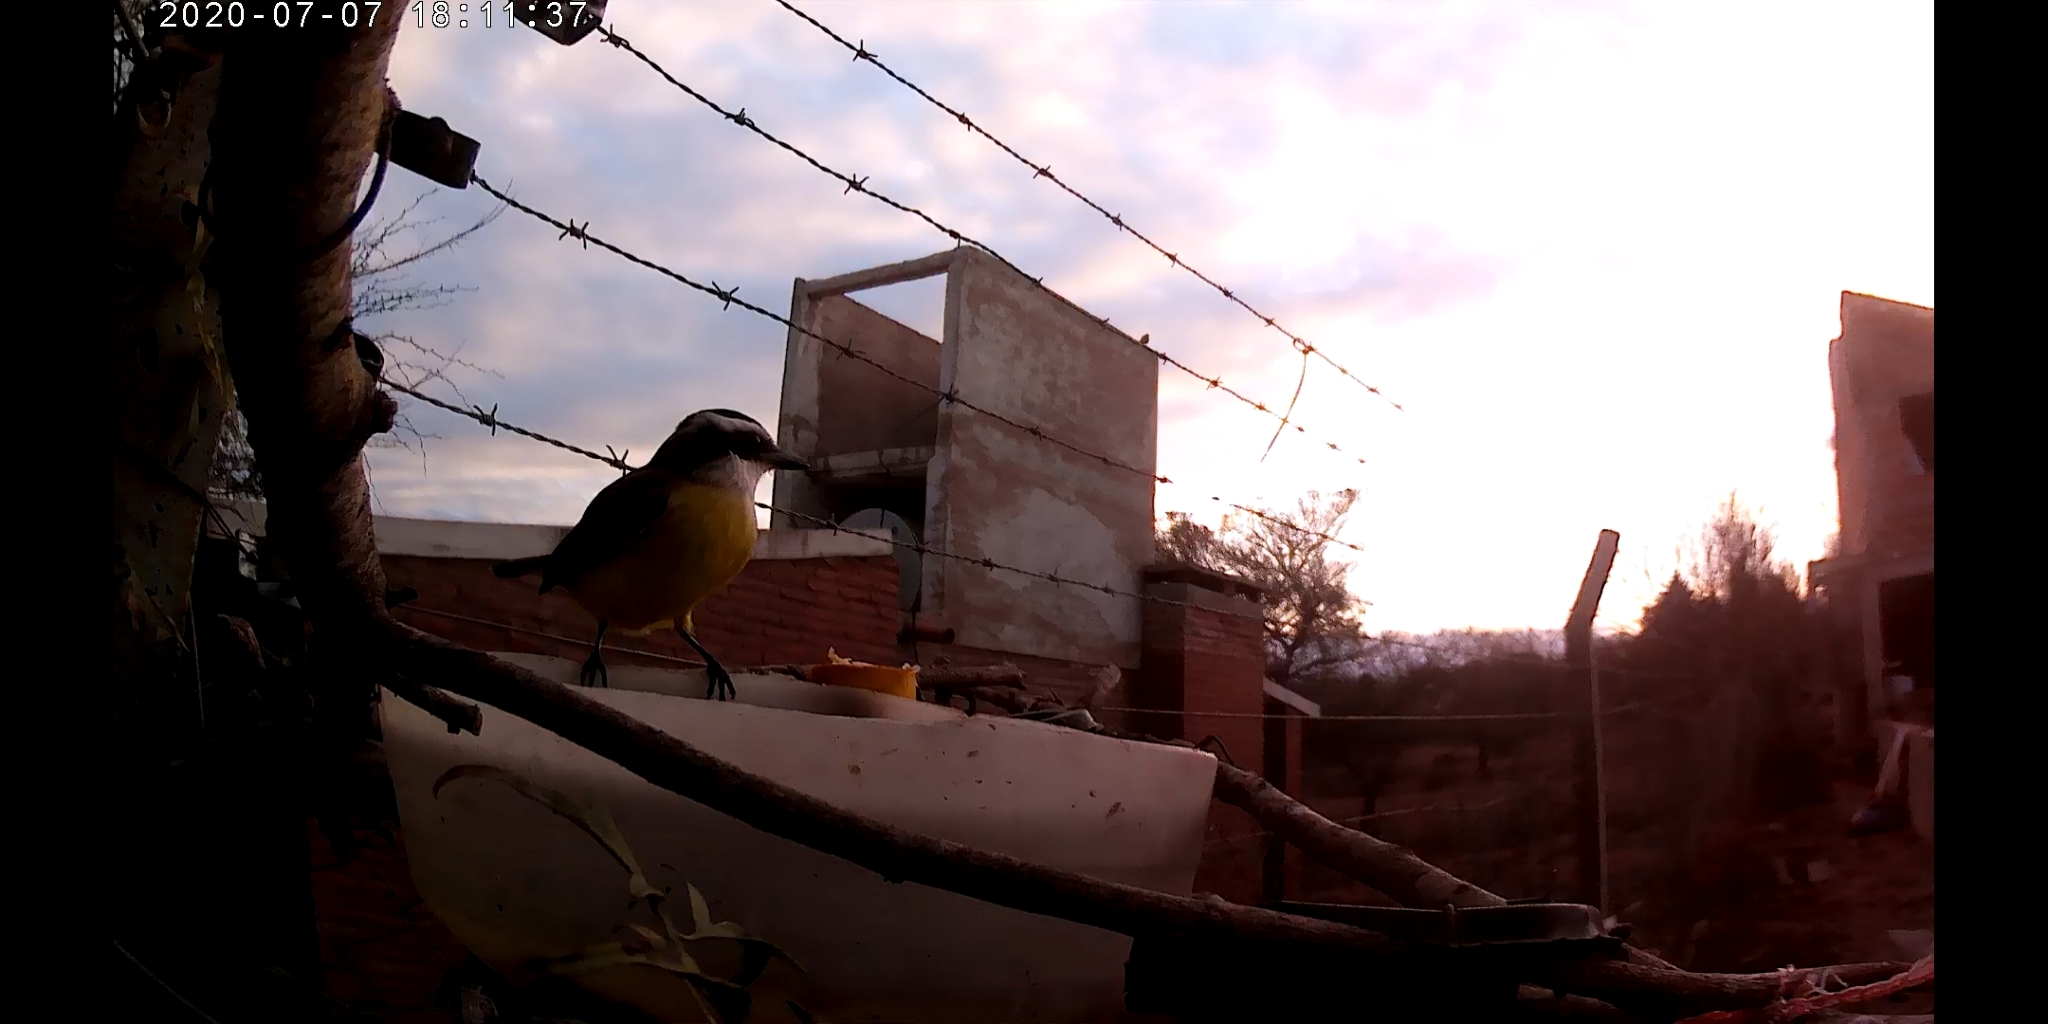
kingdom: Animalia
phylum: Chordata
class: Aves
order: Passeriformes
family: Tyrannidae
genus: Pitangus
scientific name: Pitangus sulphuratus
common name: Great kiskadee
